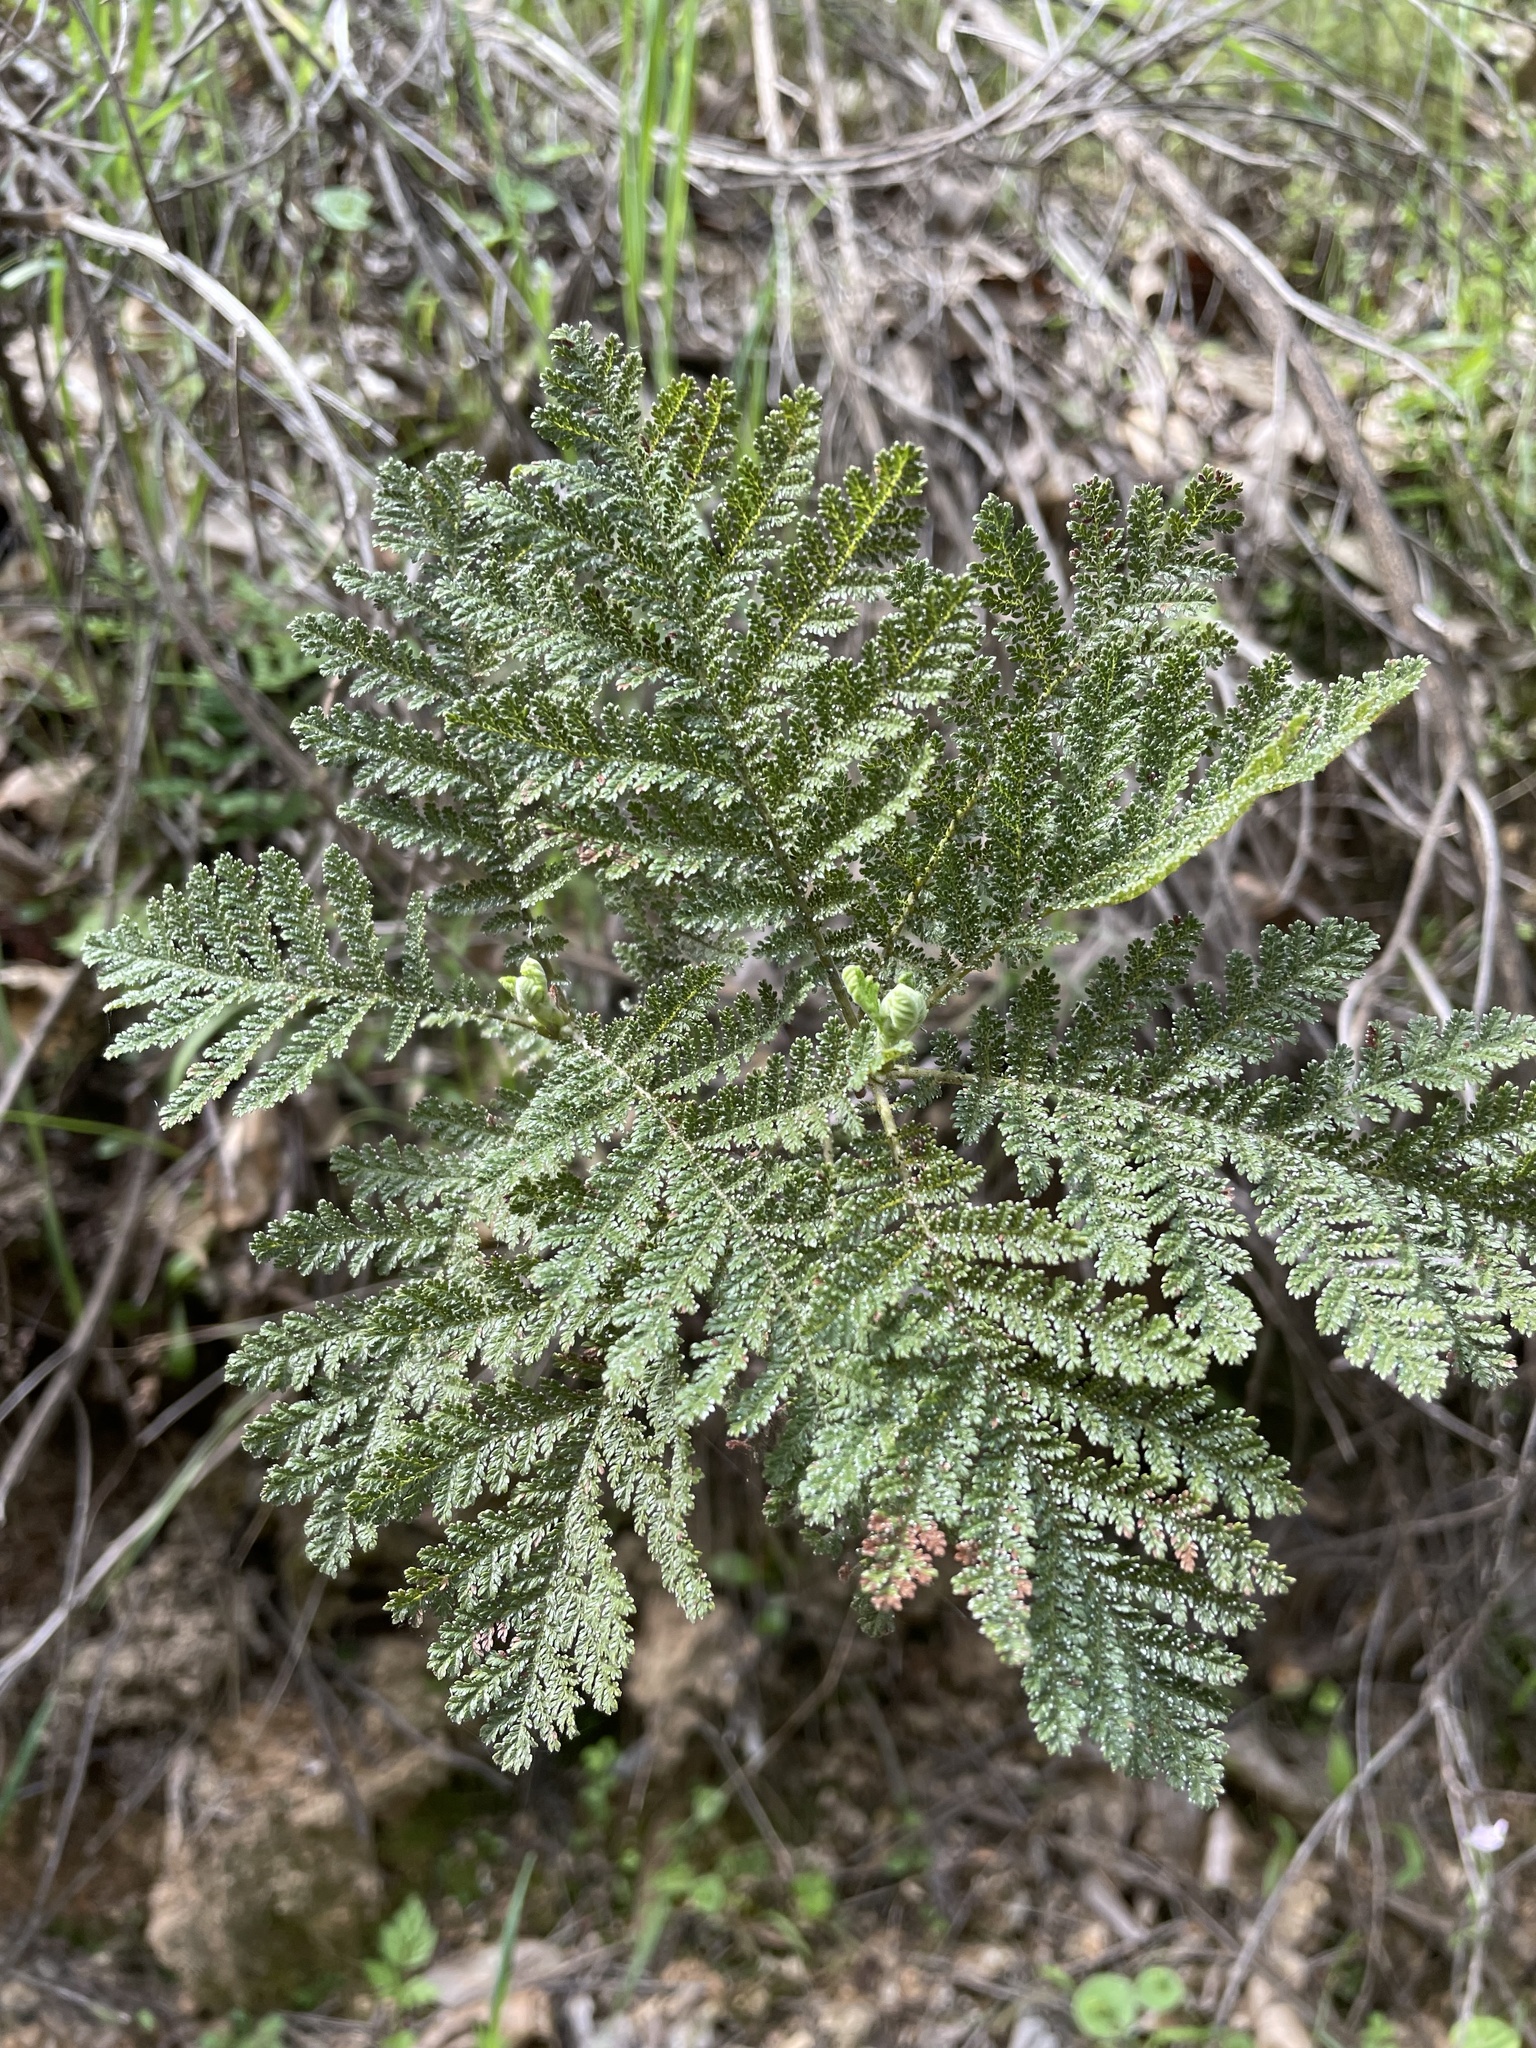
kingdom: Plantae
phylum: Tracheophyta
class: Magnoliopsida
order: Rosales
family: Rosaceae
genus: Chamaebatia
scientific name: Chamaebatia foliolosa
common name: Mountain misery
